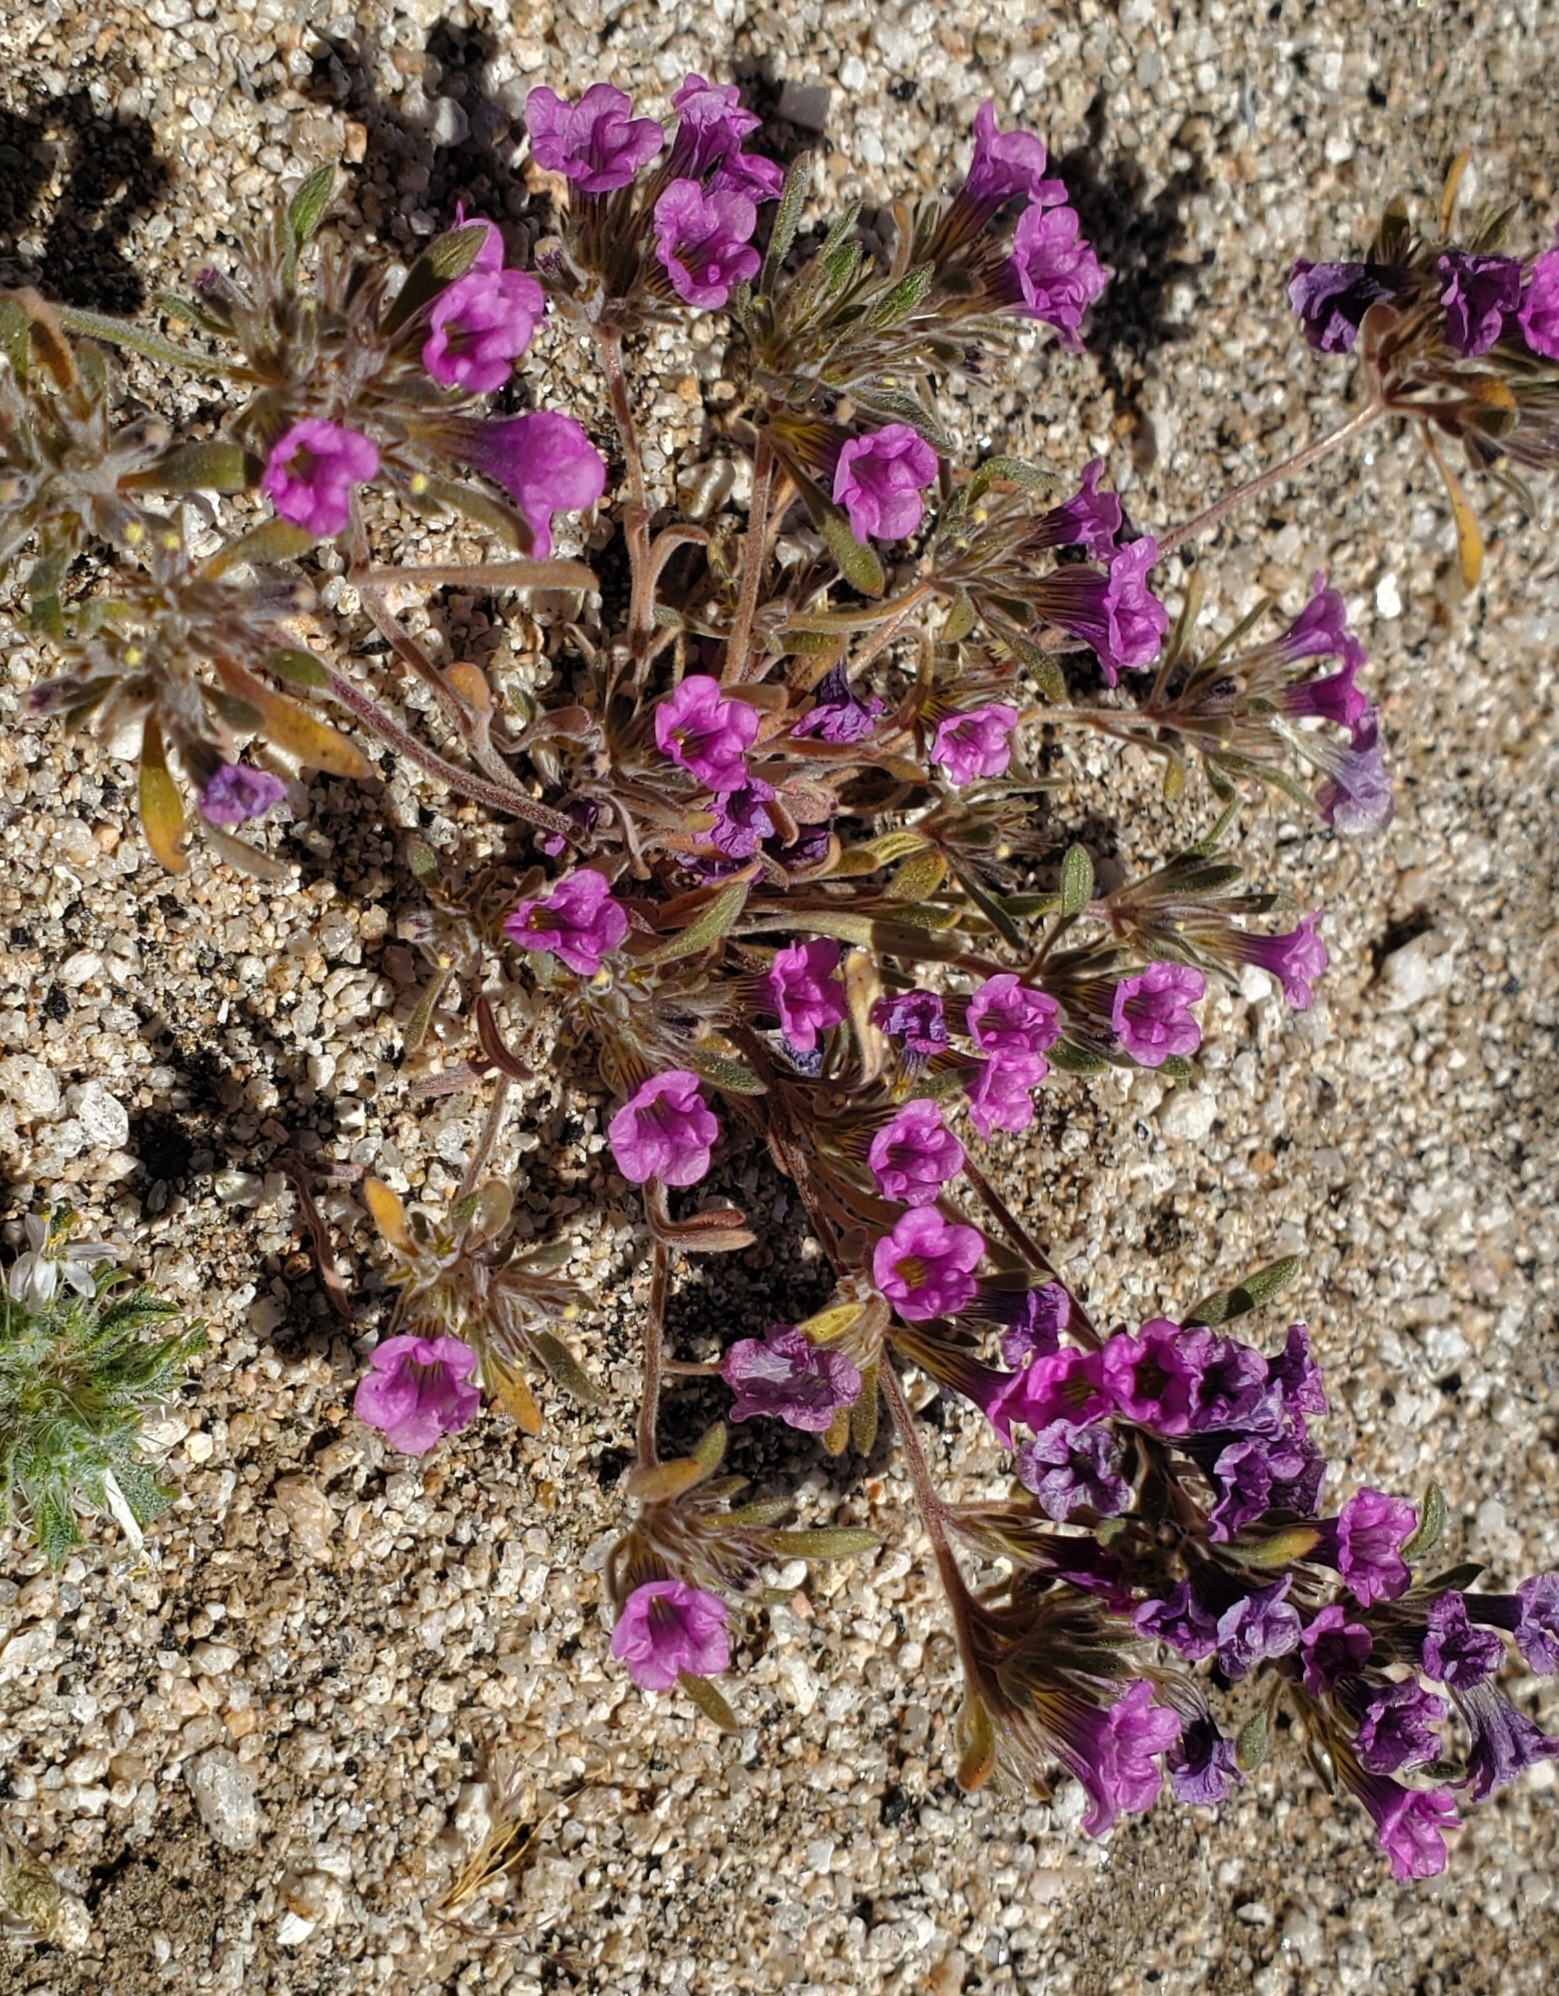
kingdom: Plantae
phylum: Tracheophyta
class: Magnoliopsida
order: Boraginales
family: Namaceae
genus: Nama
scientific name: Nama demissa
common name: Leafy nama
